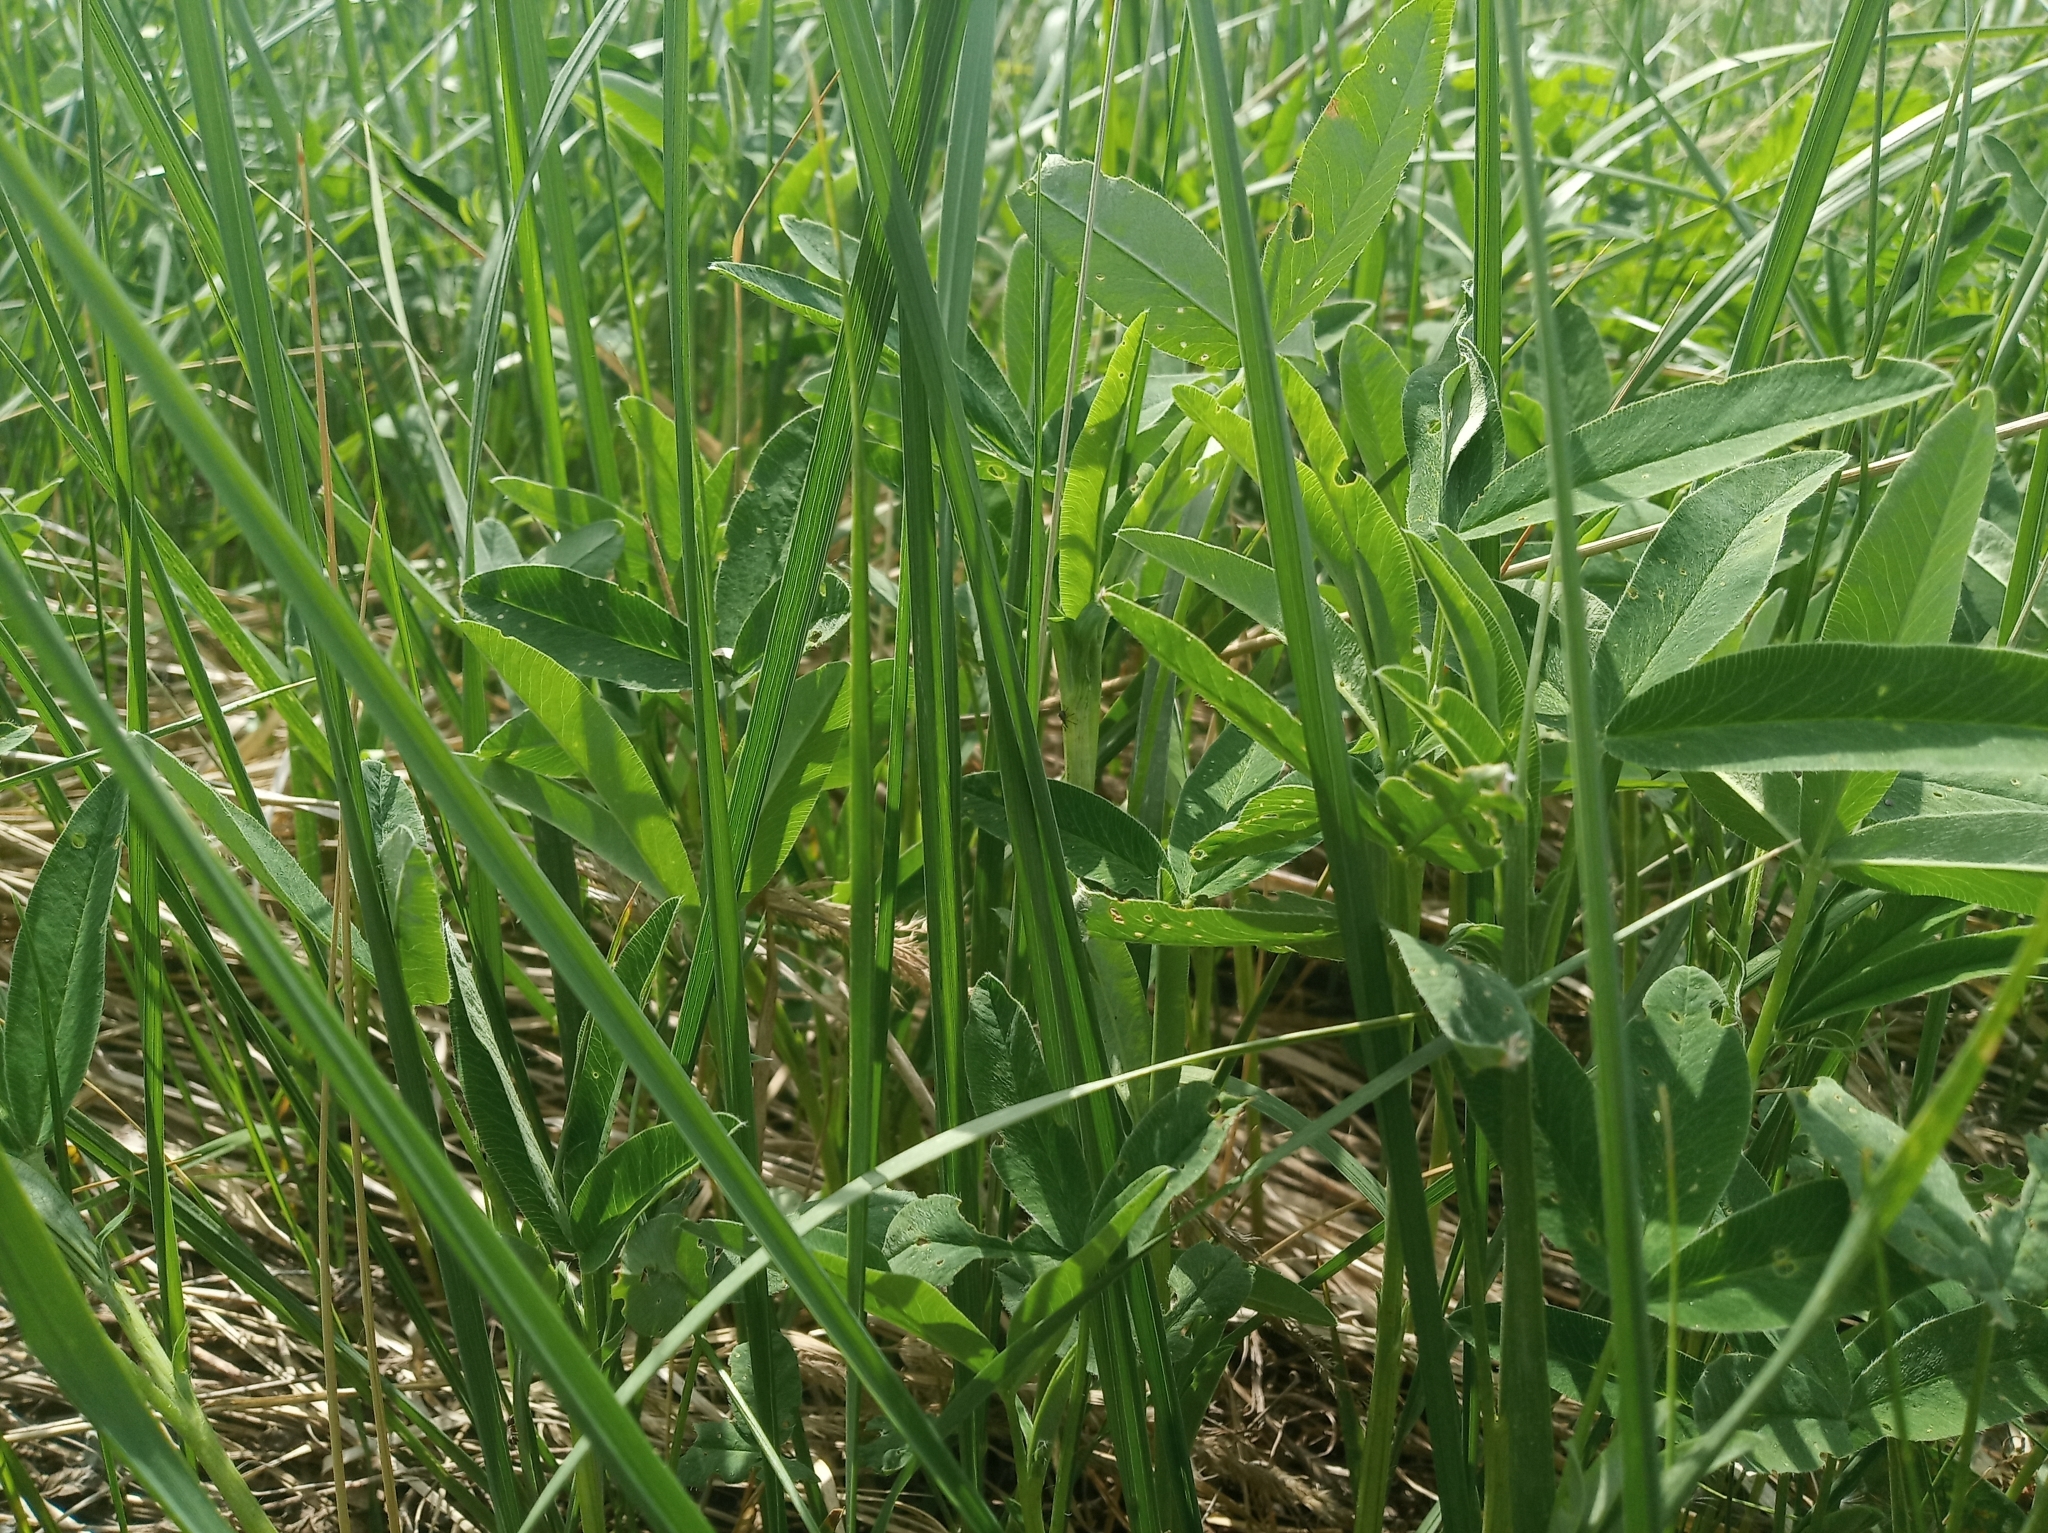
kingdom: Plantae
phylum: Tracheophyta
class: Magnoliopsida
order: Fabales
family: Fabaceae
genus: Trifolium
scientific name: Trifolium medium
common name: Zigzag clover
